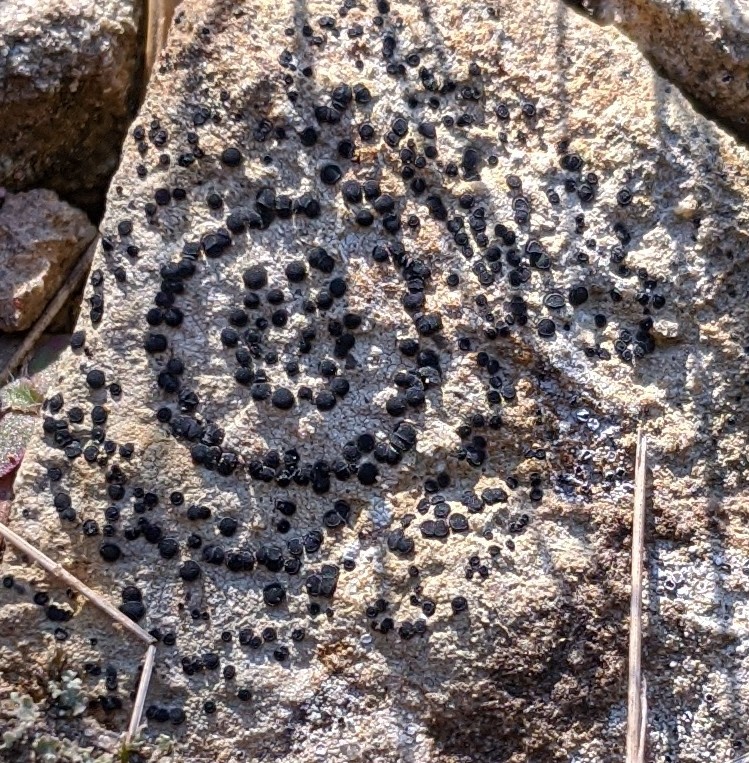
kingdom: Fungi
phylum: Ascomycota
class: Lecanoromycetes
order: Lecideales
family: Lecideaceae
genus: Porpidia
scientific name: Porpidia crustulata
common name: Concentric boulder lichen
